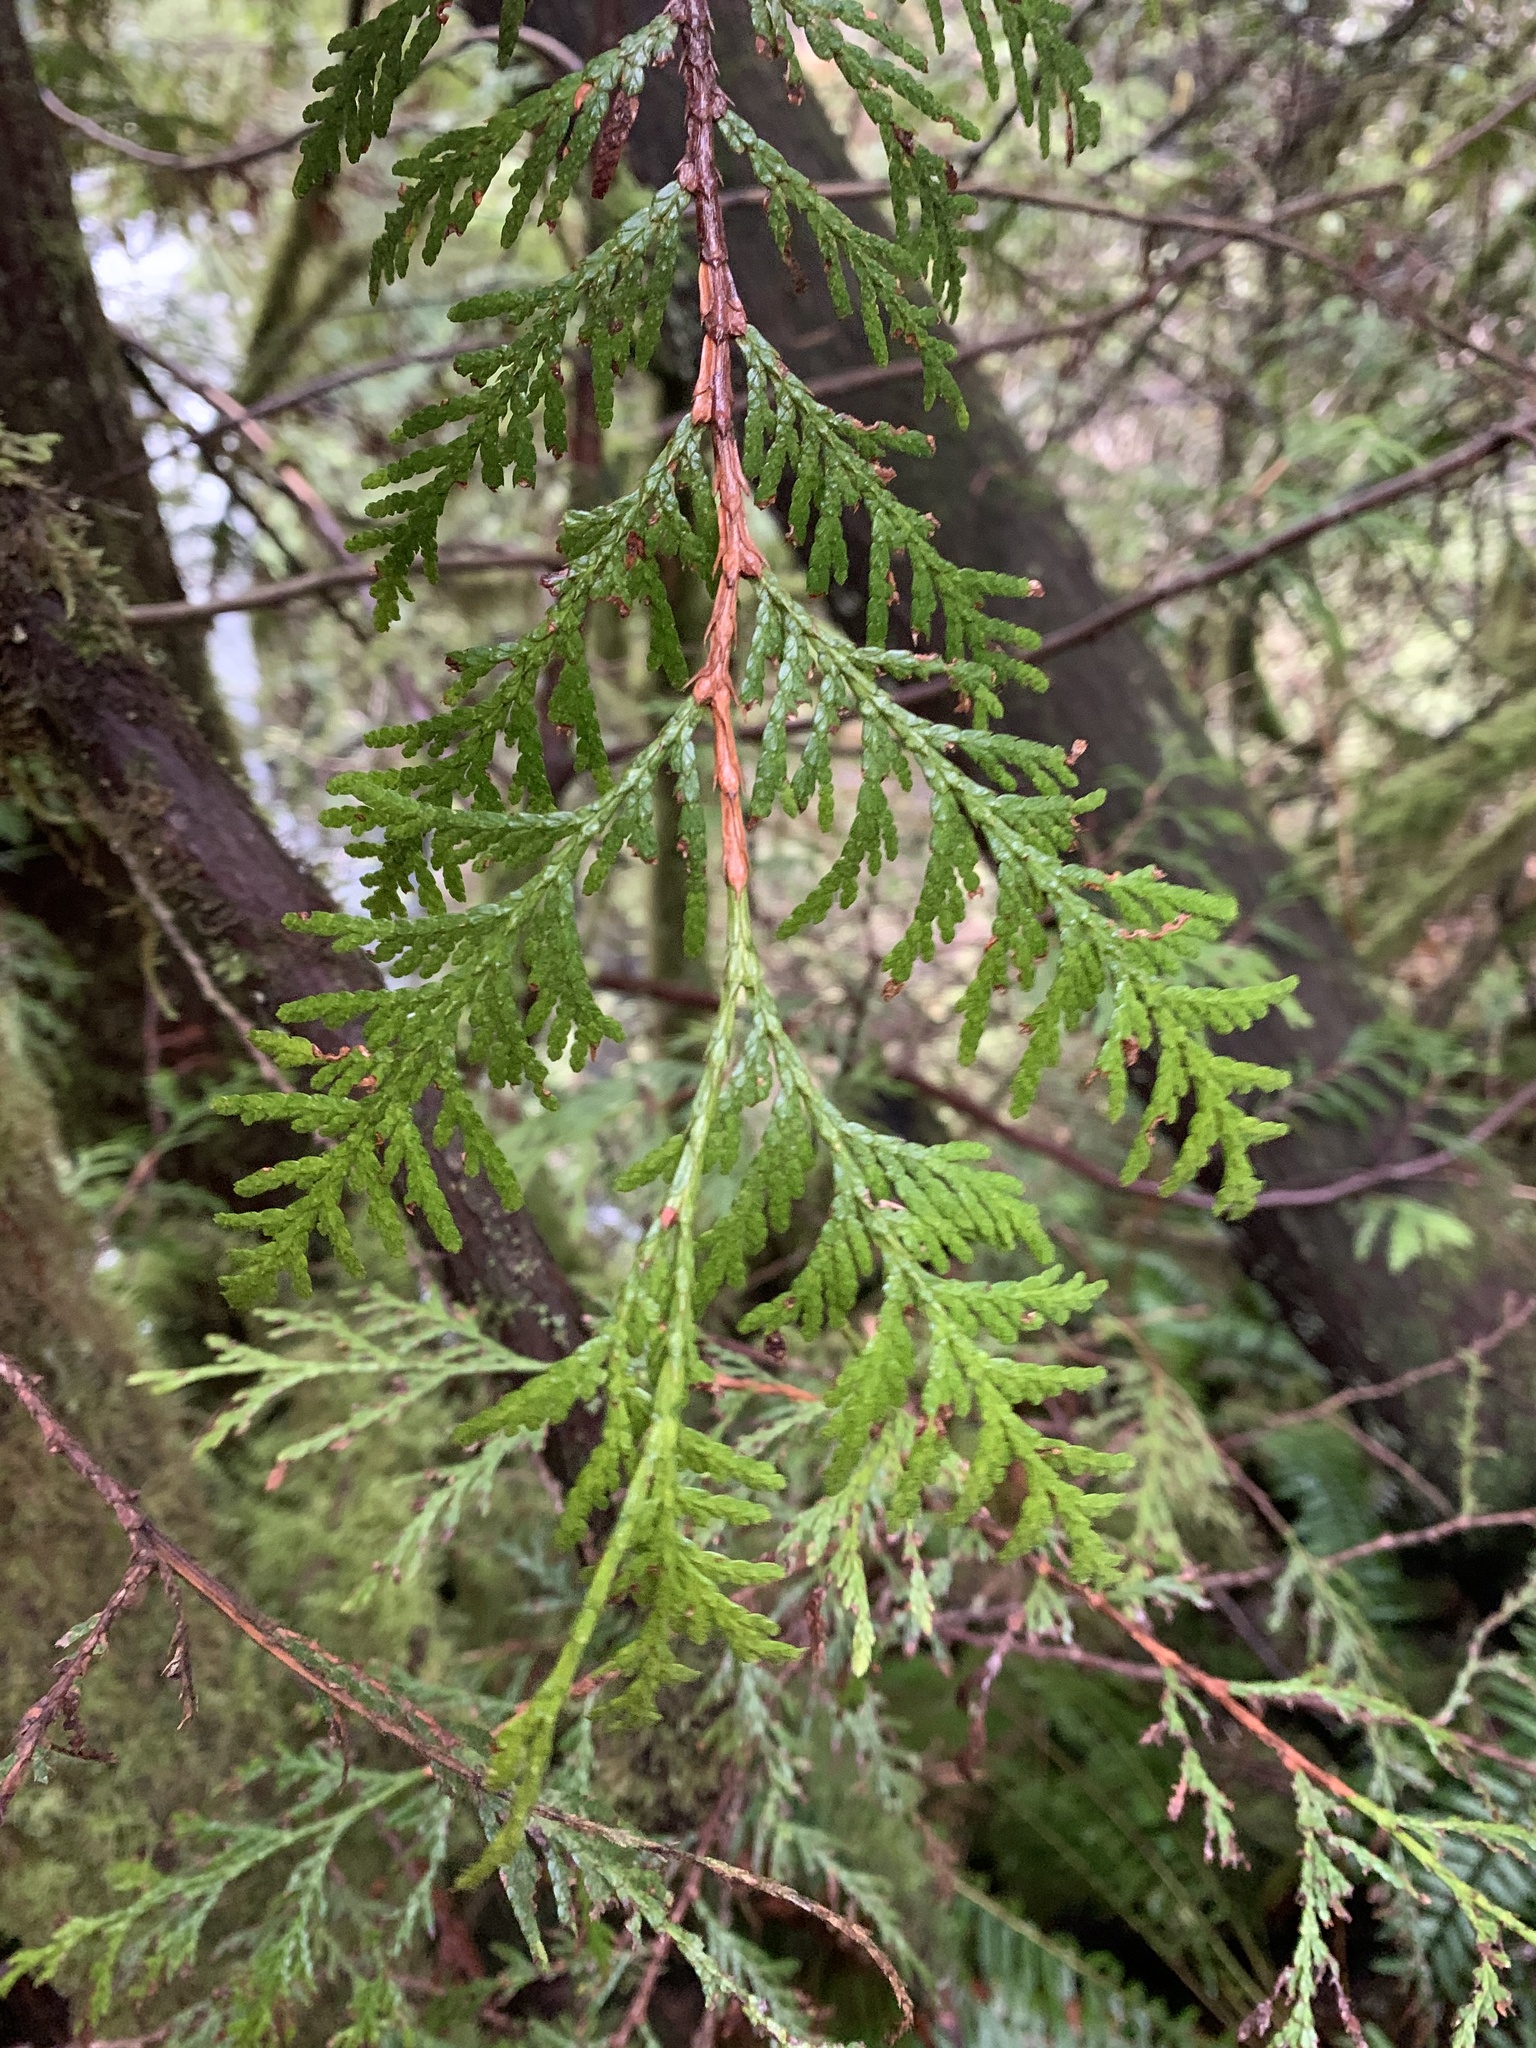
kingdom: Plantae
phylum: Tracheophyta
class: Pinopsida
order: Pinales
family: Cupressaceae
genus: Thuja
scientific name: Thuja plicata
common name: Western red-cedar
